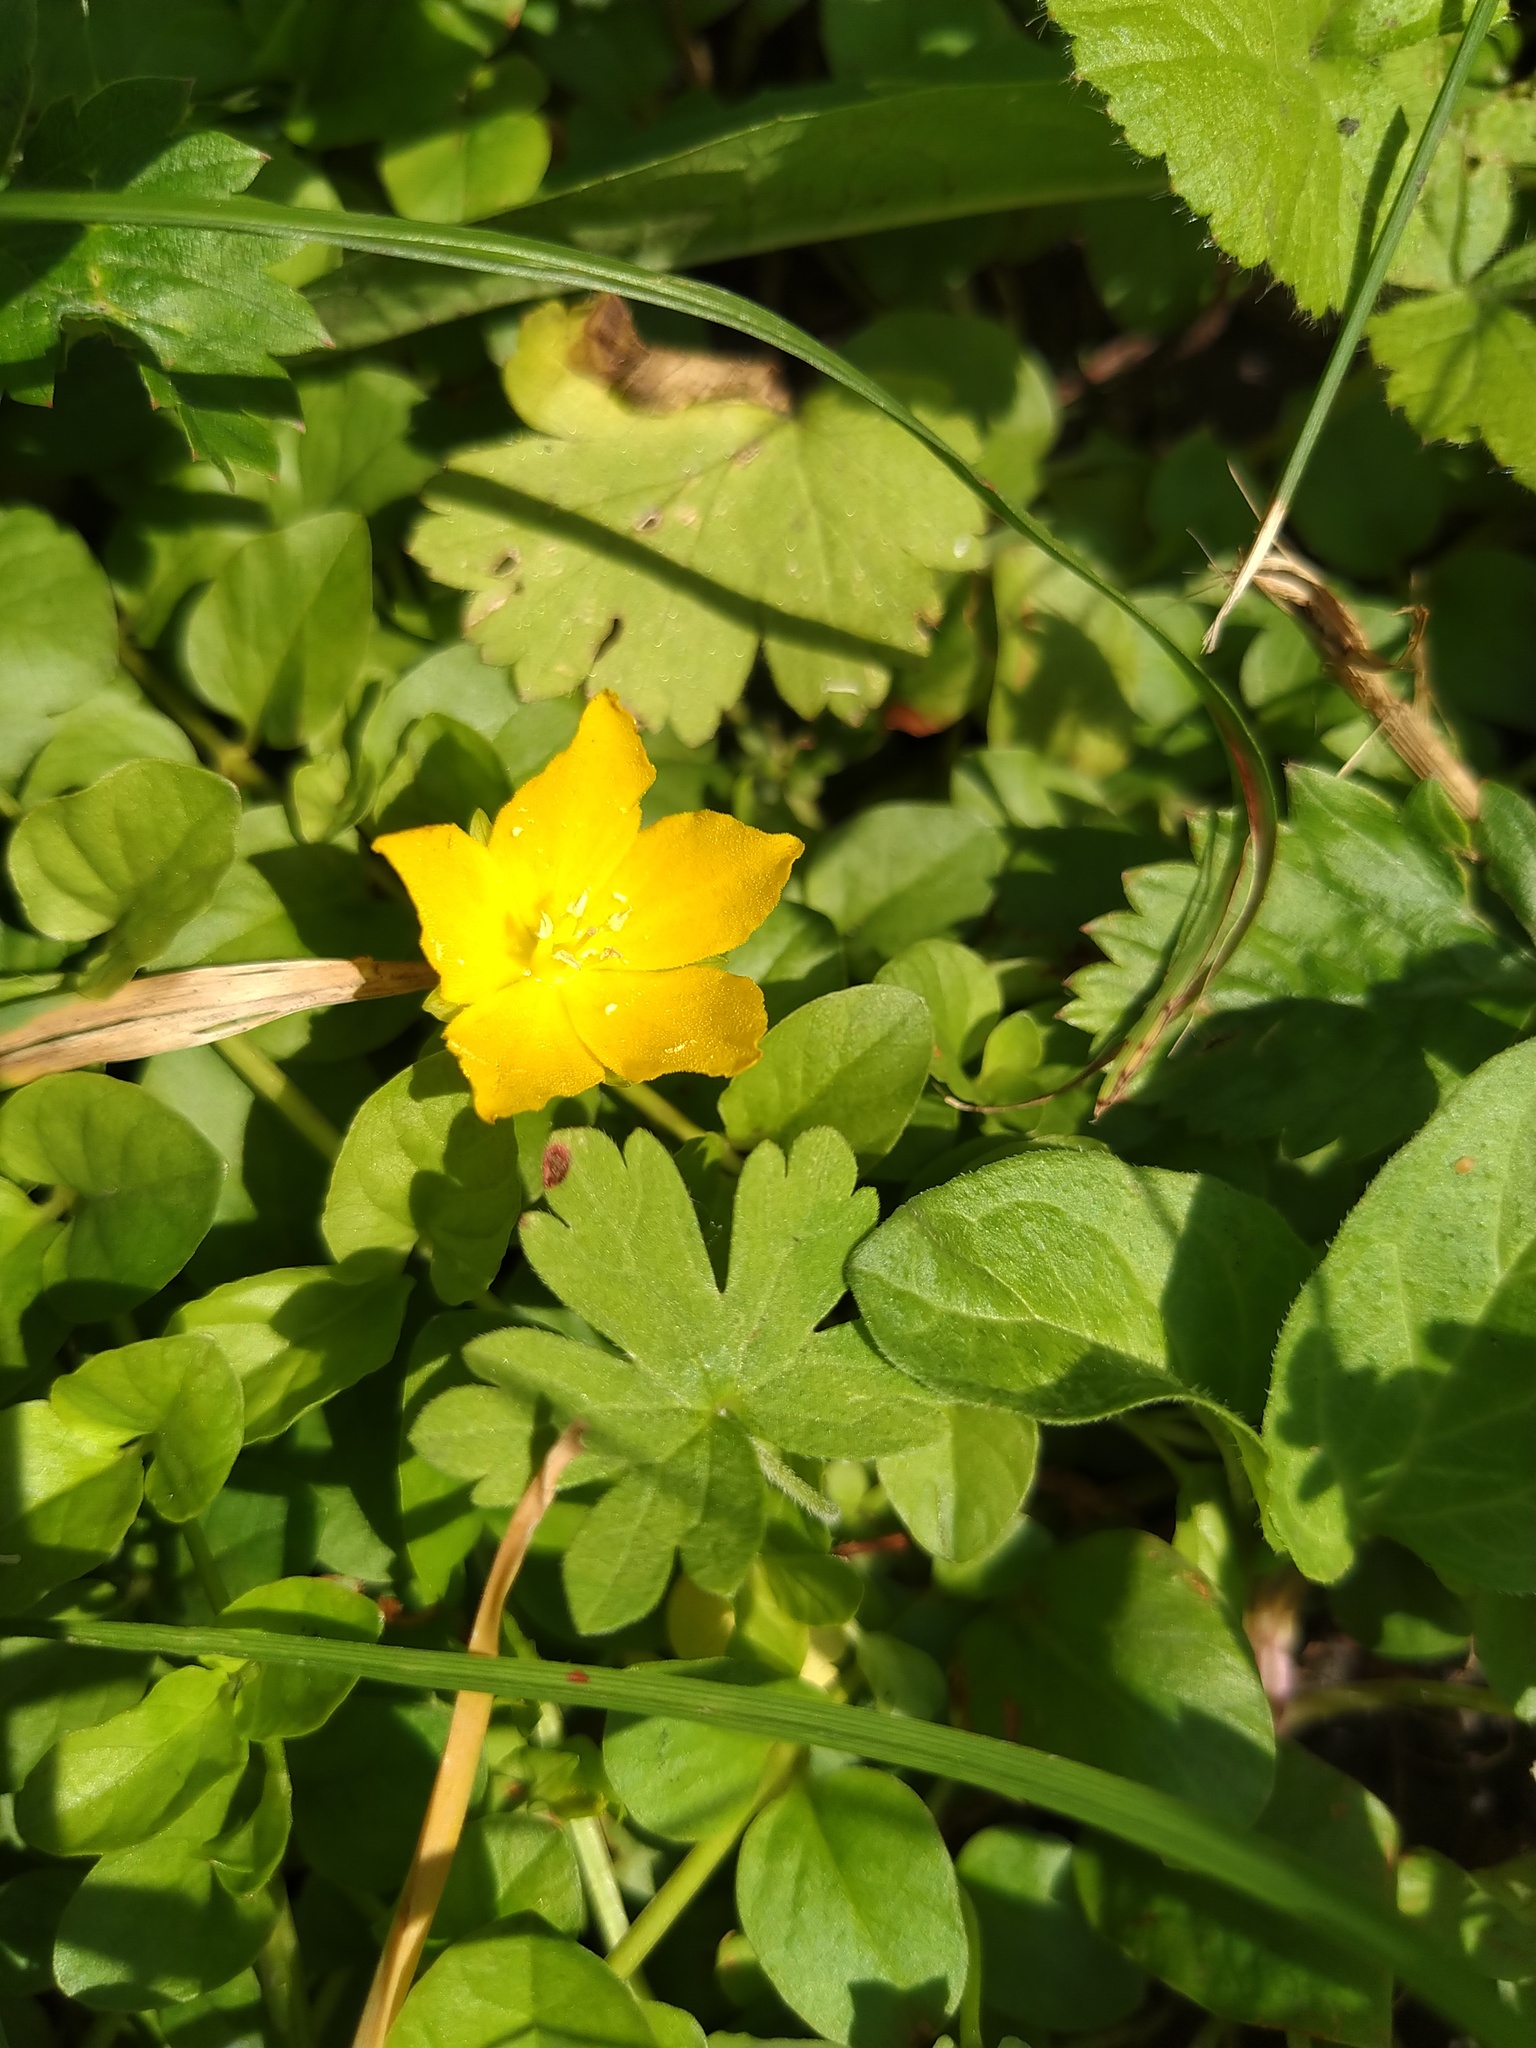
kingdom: Plantae
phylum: Tracheophyta
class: Magnoliopsida
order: Ericales
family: Primulaceae
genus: Lysimachia
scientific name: Lysimachia nummularia
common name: Moneywort
